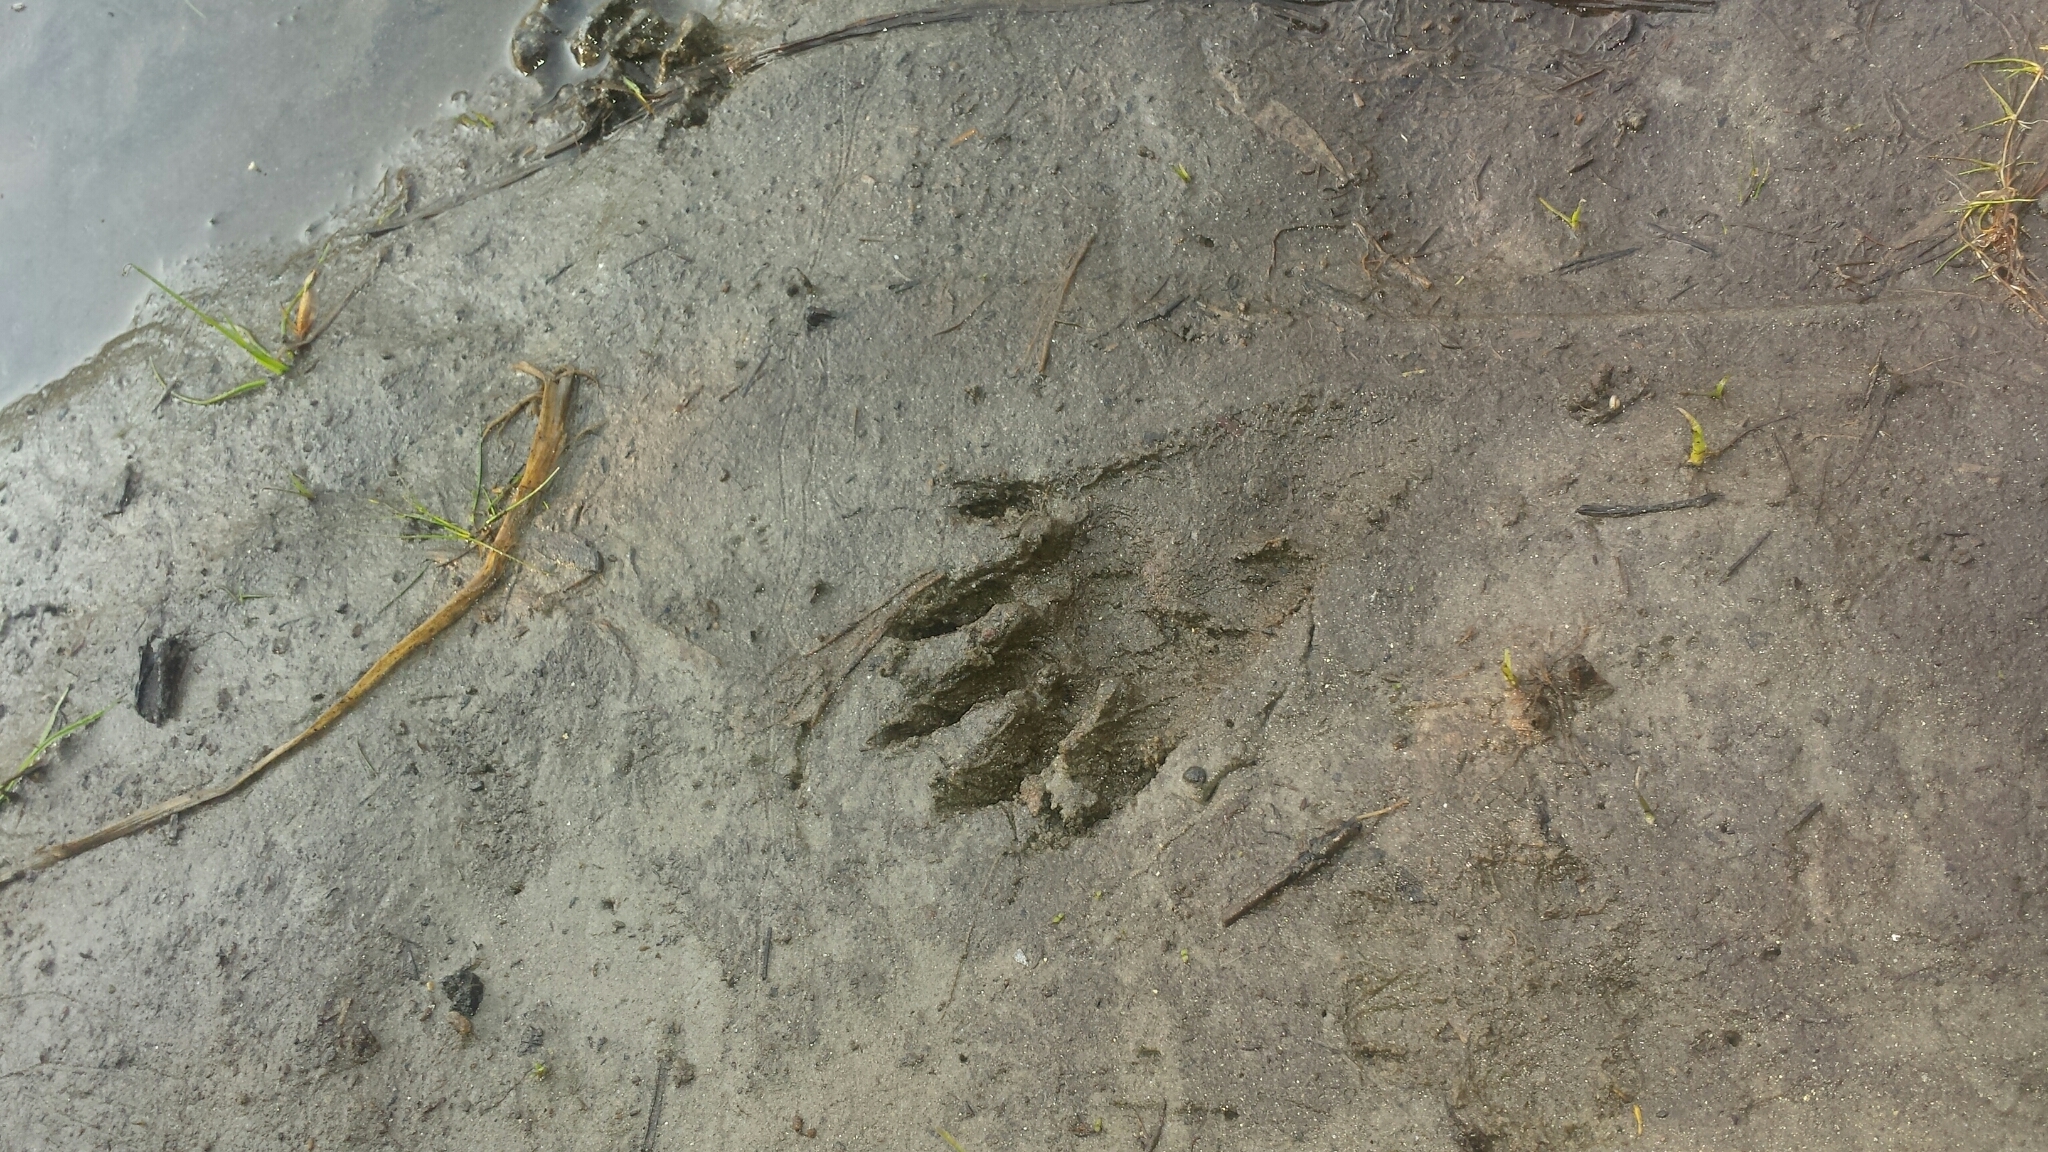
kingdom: Animalia
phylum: Chordata
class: Mammalia
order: Carnivora
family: Procyonidae
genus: Procyon
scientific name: Procyon lotor
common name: Raccoon
